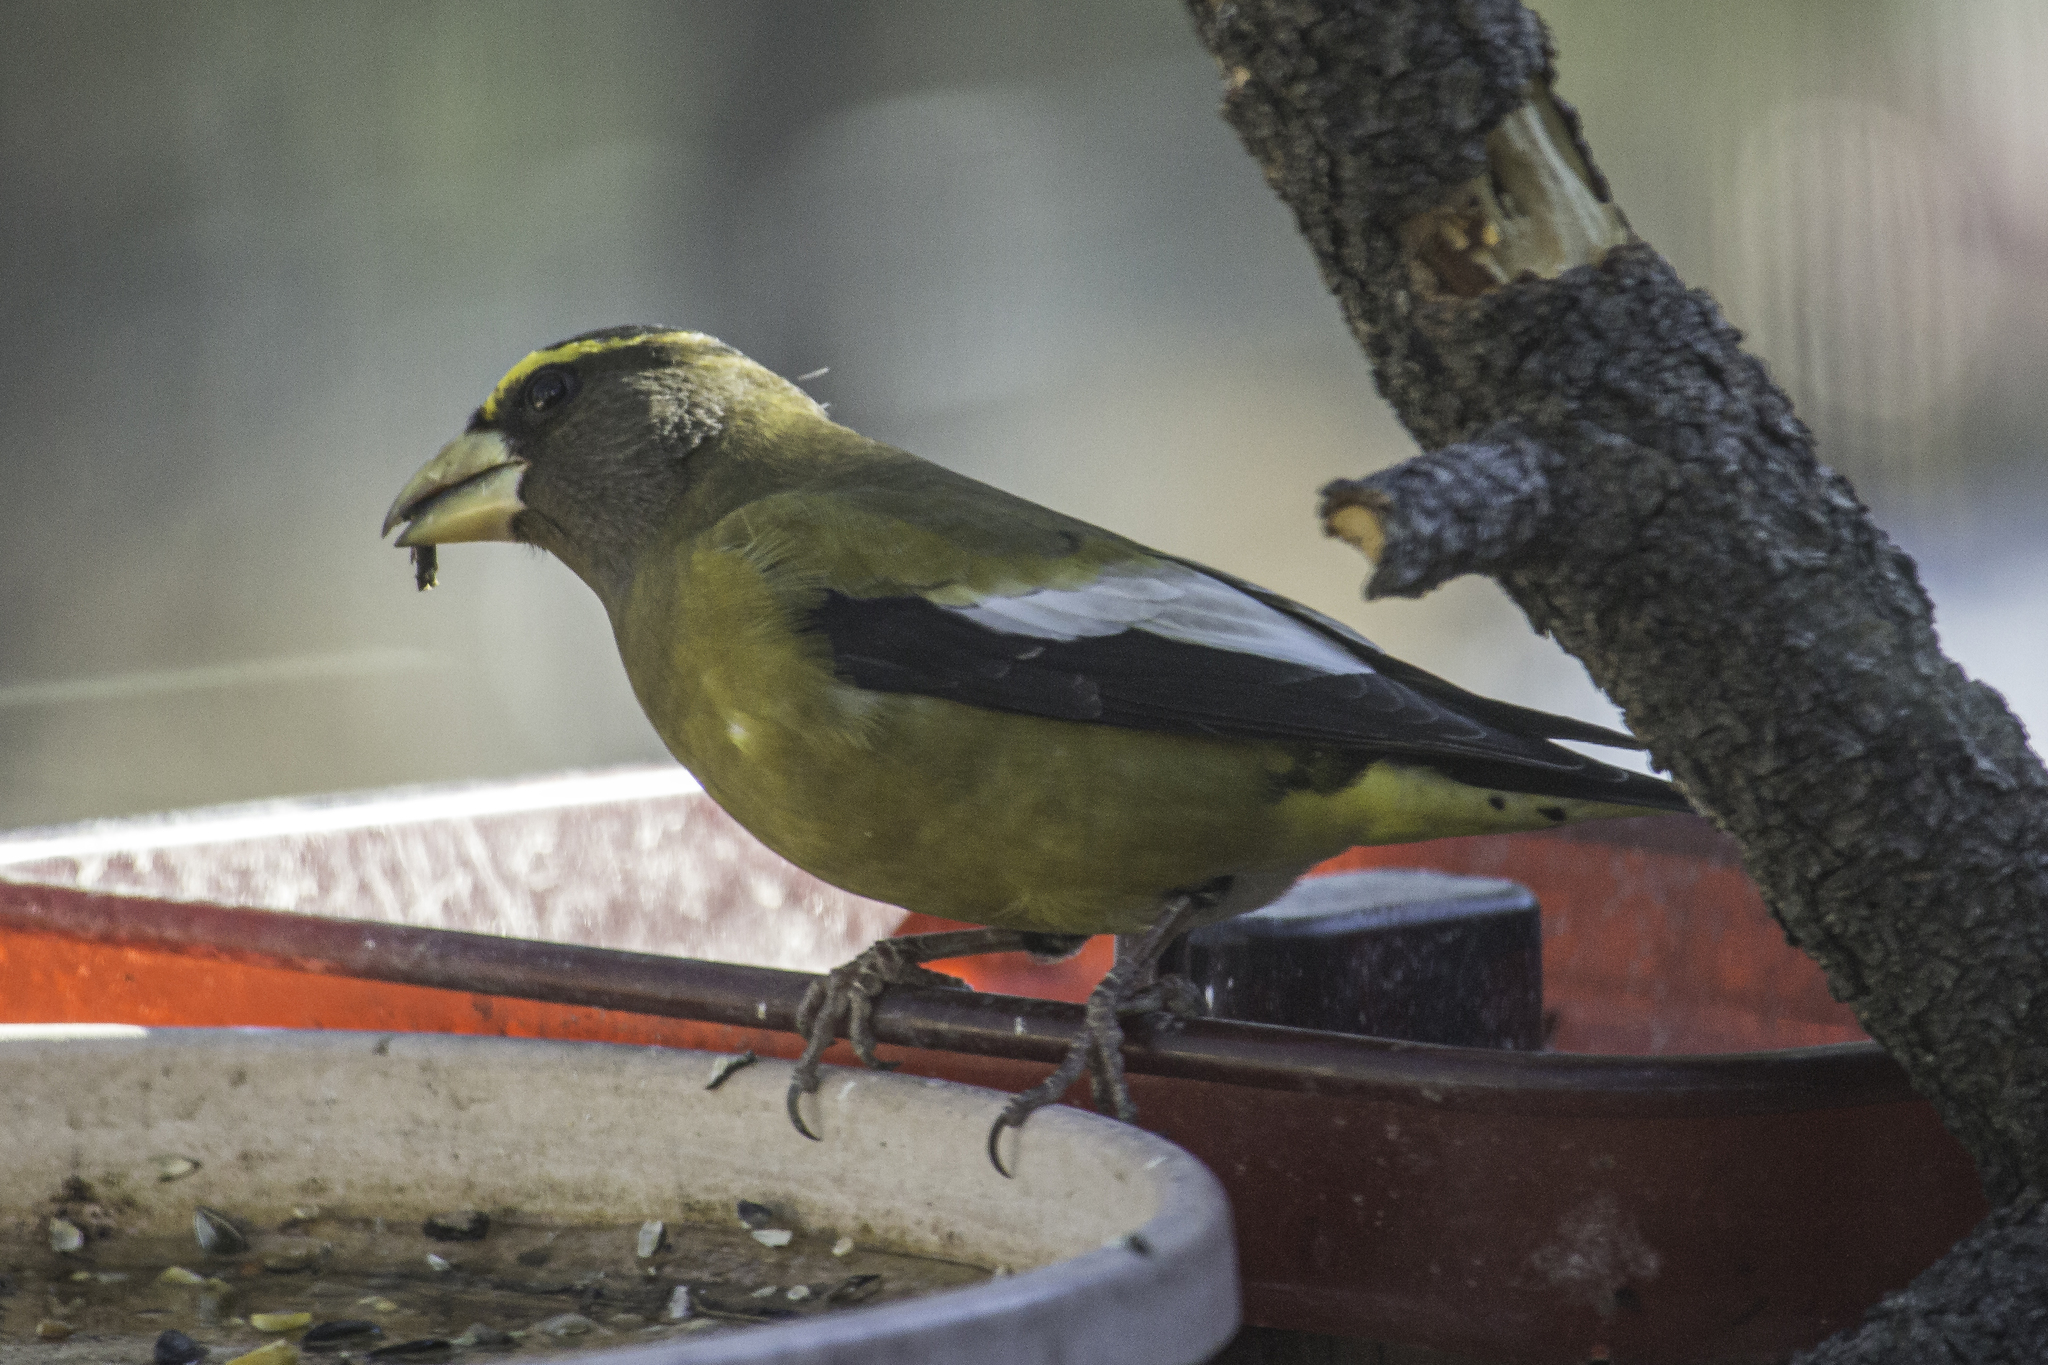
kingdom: Animalia
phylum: Chordata
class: Aves
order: Passeriformes
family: Fringillidae
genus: Hesperiphona
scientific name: Hesperiphona vespertina
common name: Evening grosbeak
